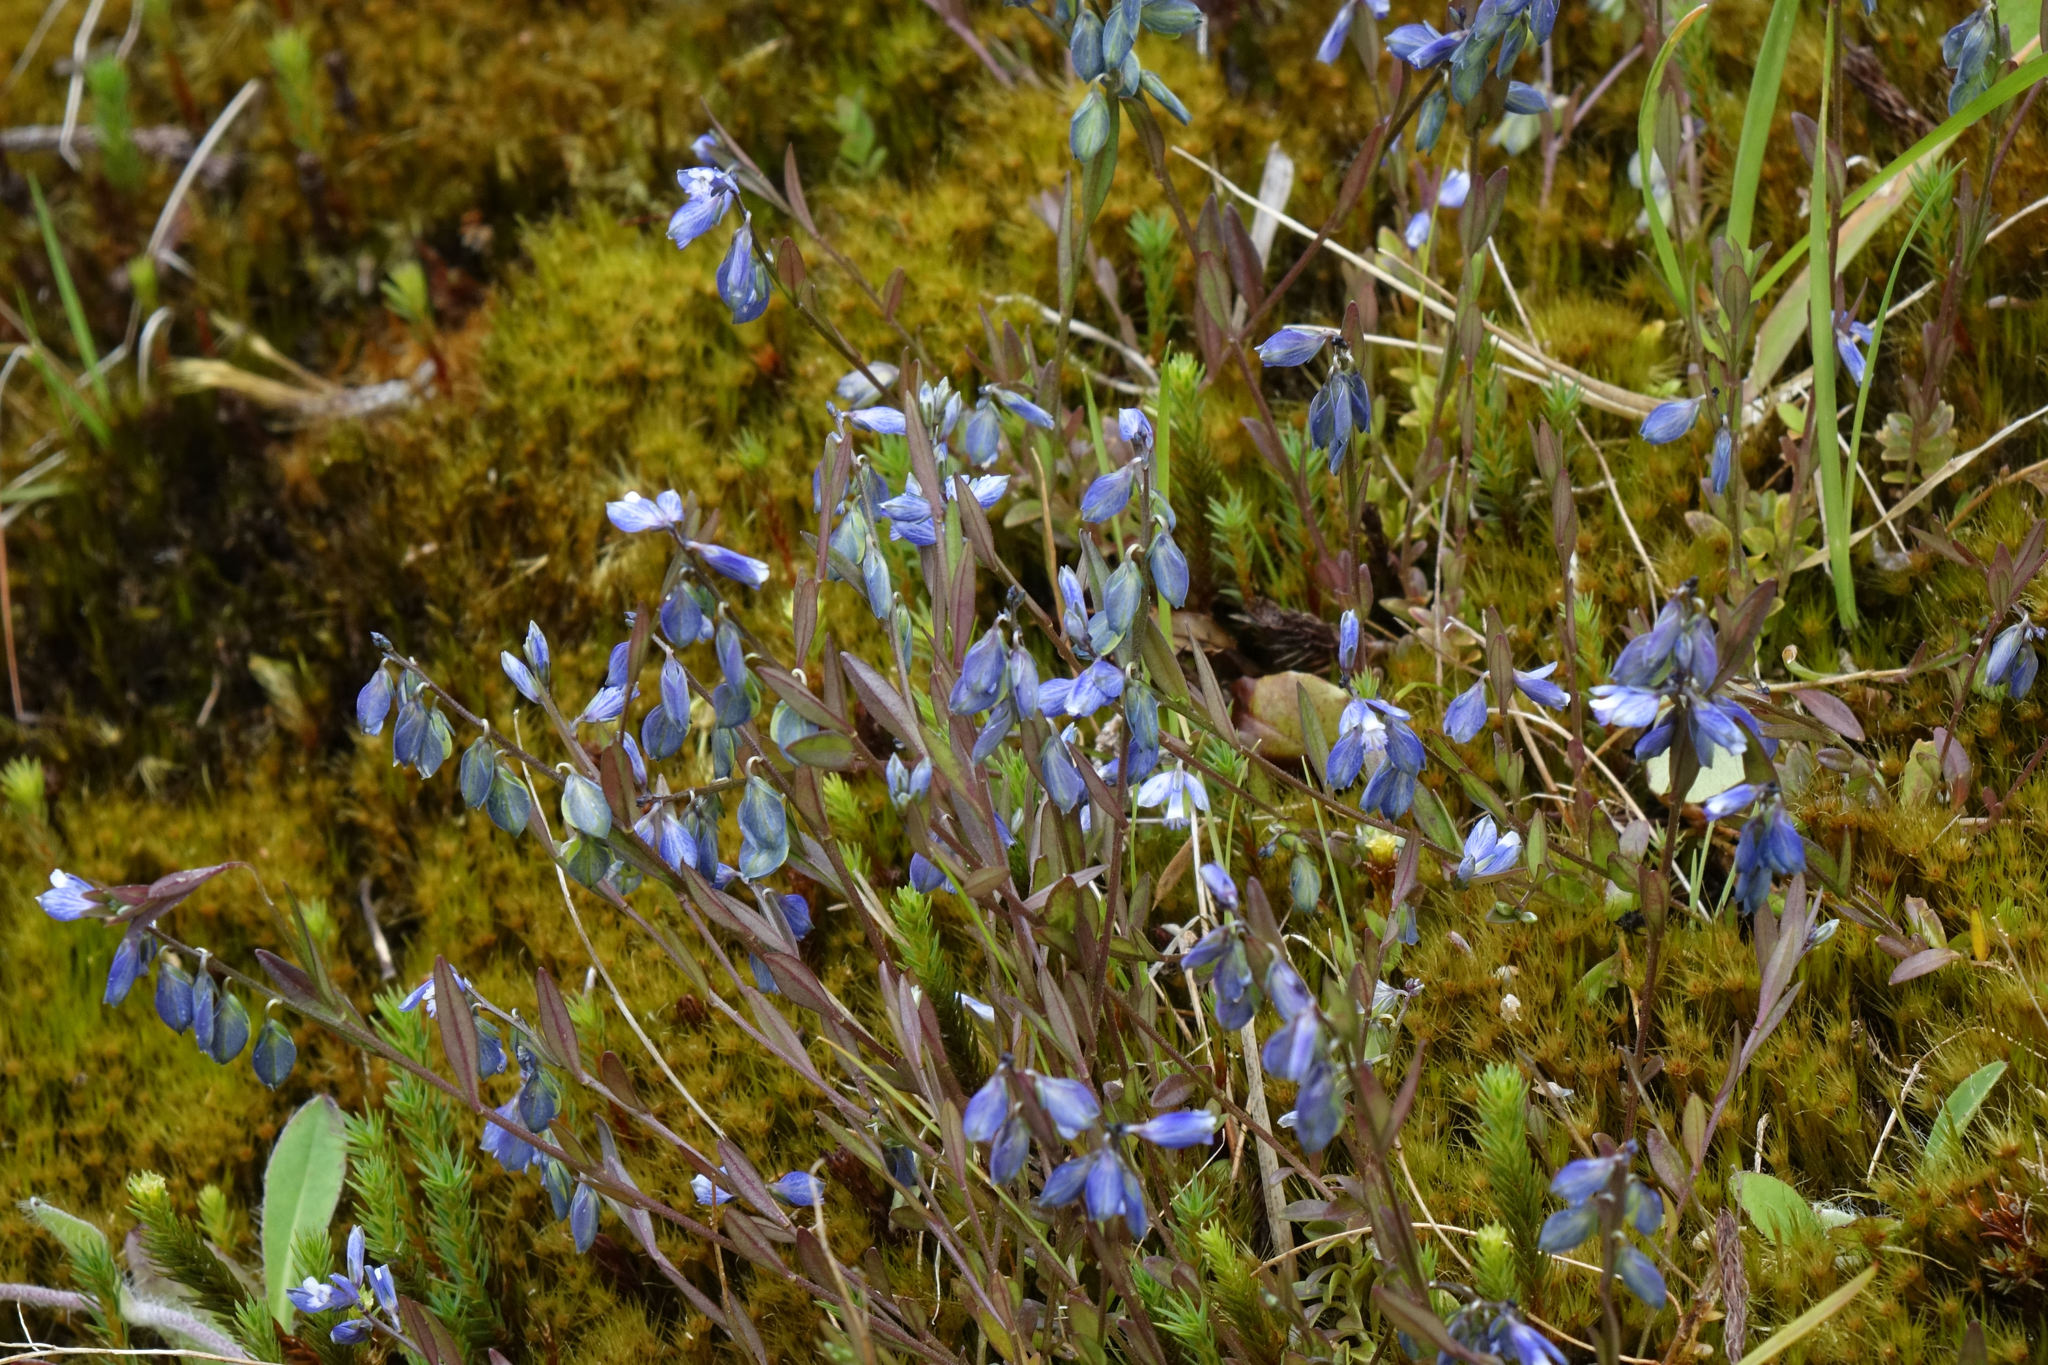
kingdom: Plantae
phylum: Tracheophyta
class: Magnoliopsida
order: Fabales
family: Polygalaceae
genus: Polygala
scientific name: Polygala serpyllifolia
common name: Heath milkwort
